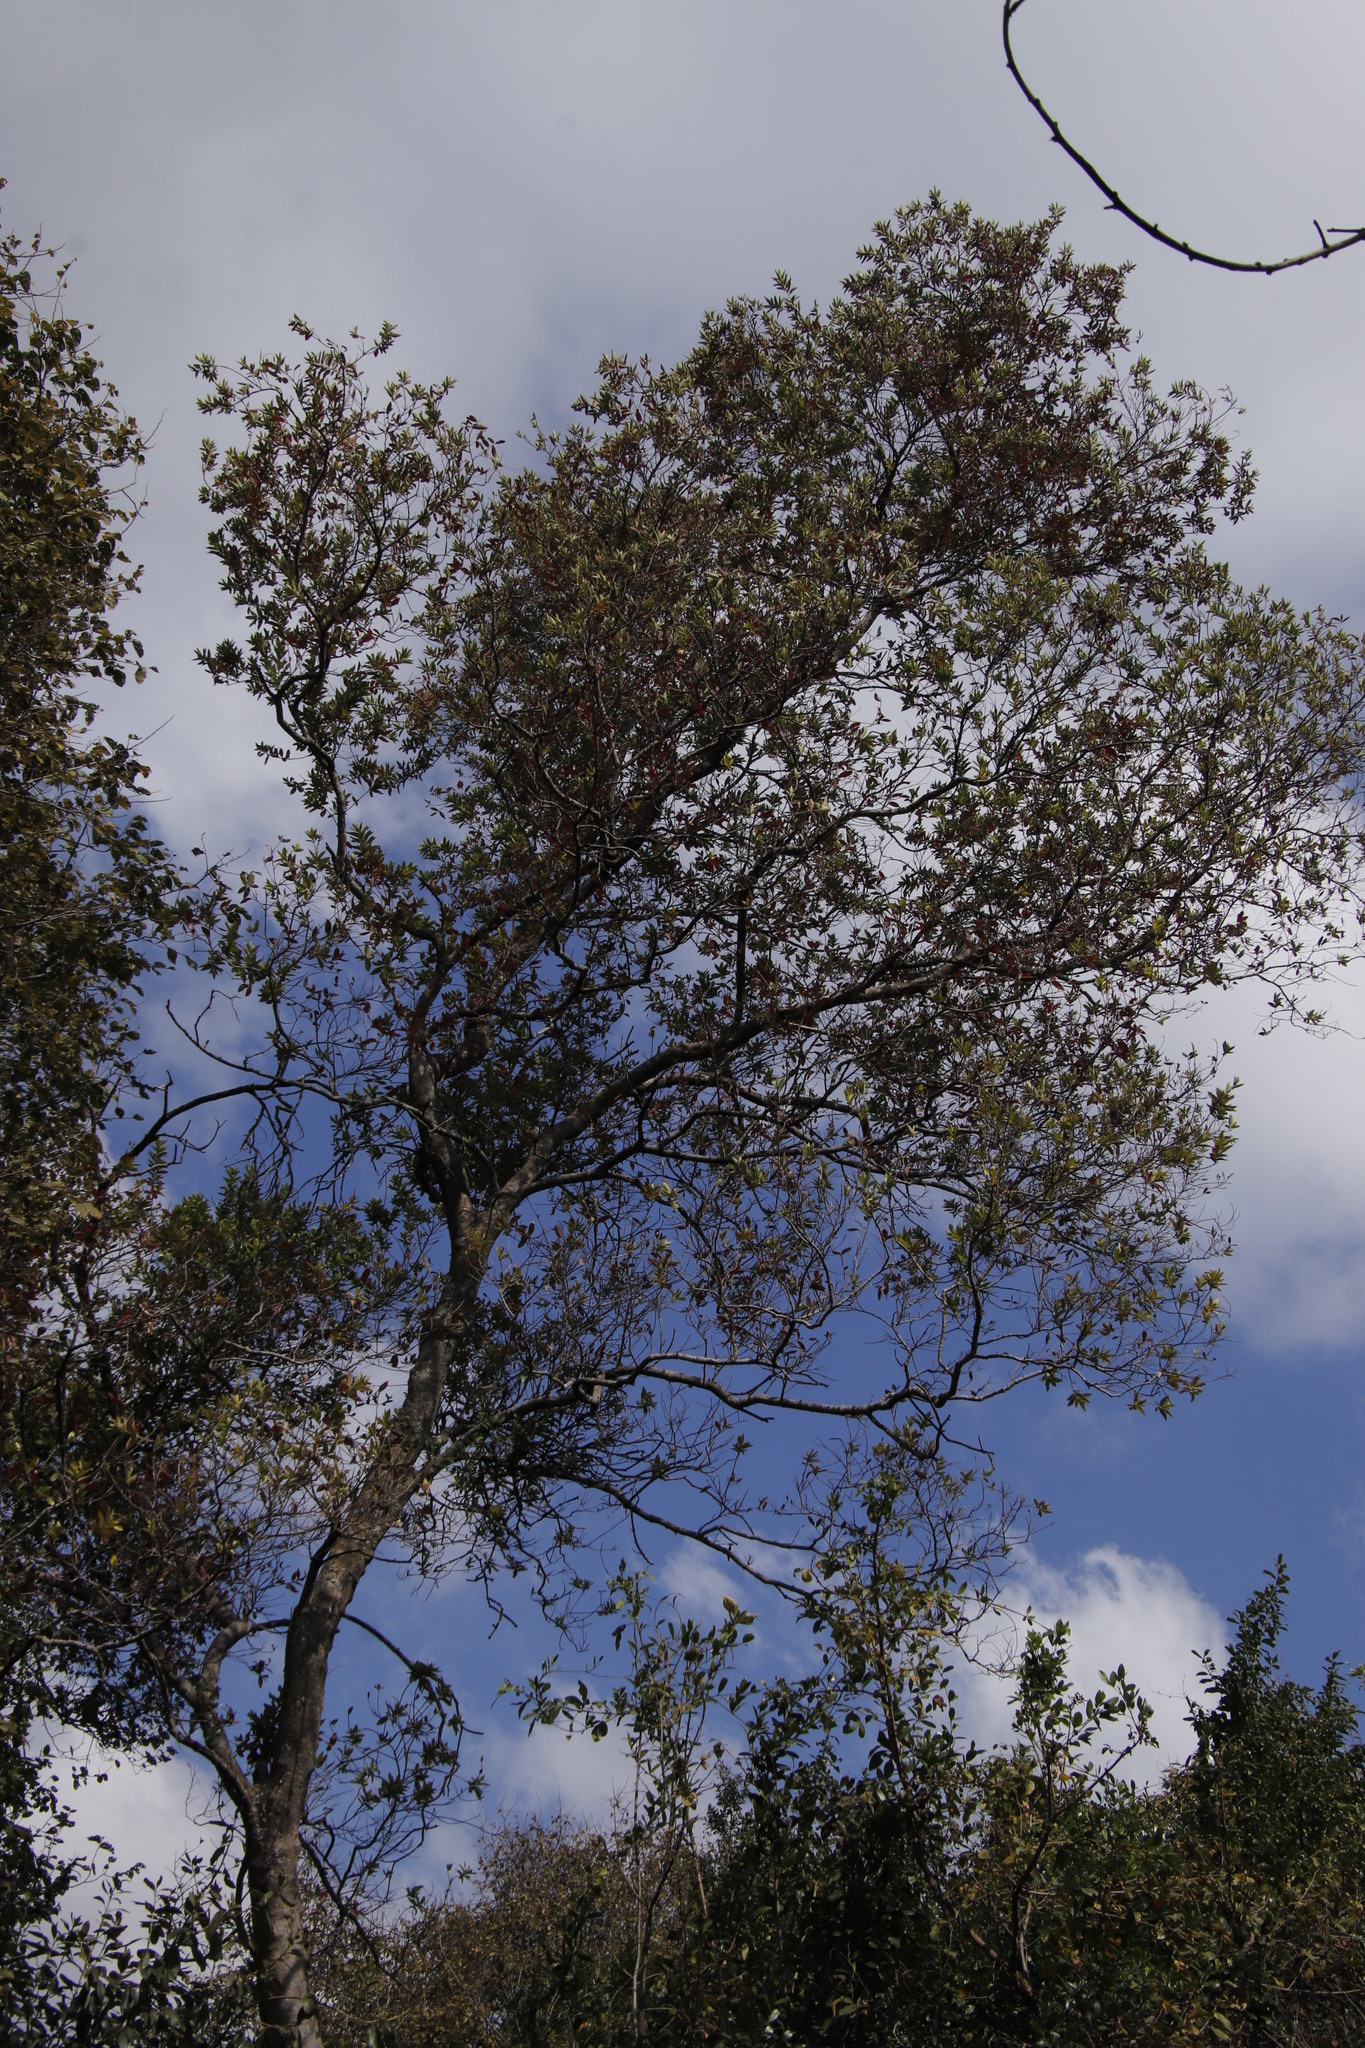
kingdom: Plantae
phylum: Tracheophyta
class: Magnoliopsida
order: Myrtales
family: Combretaceae
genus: Combretum
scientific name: Combretum erythrophyllum
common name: Bush-willow
